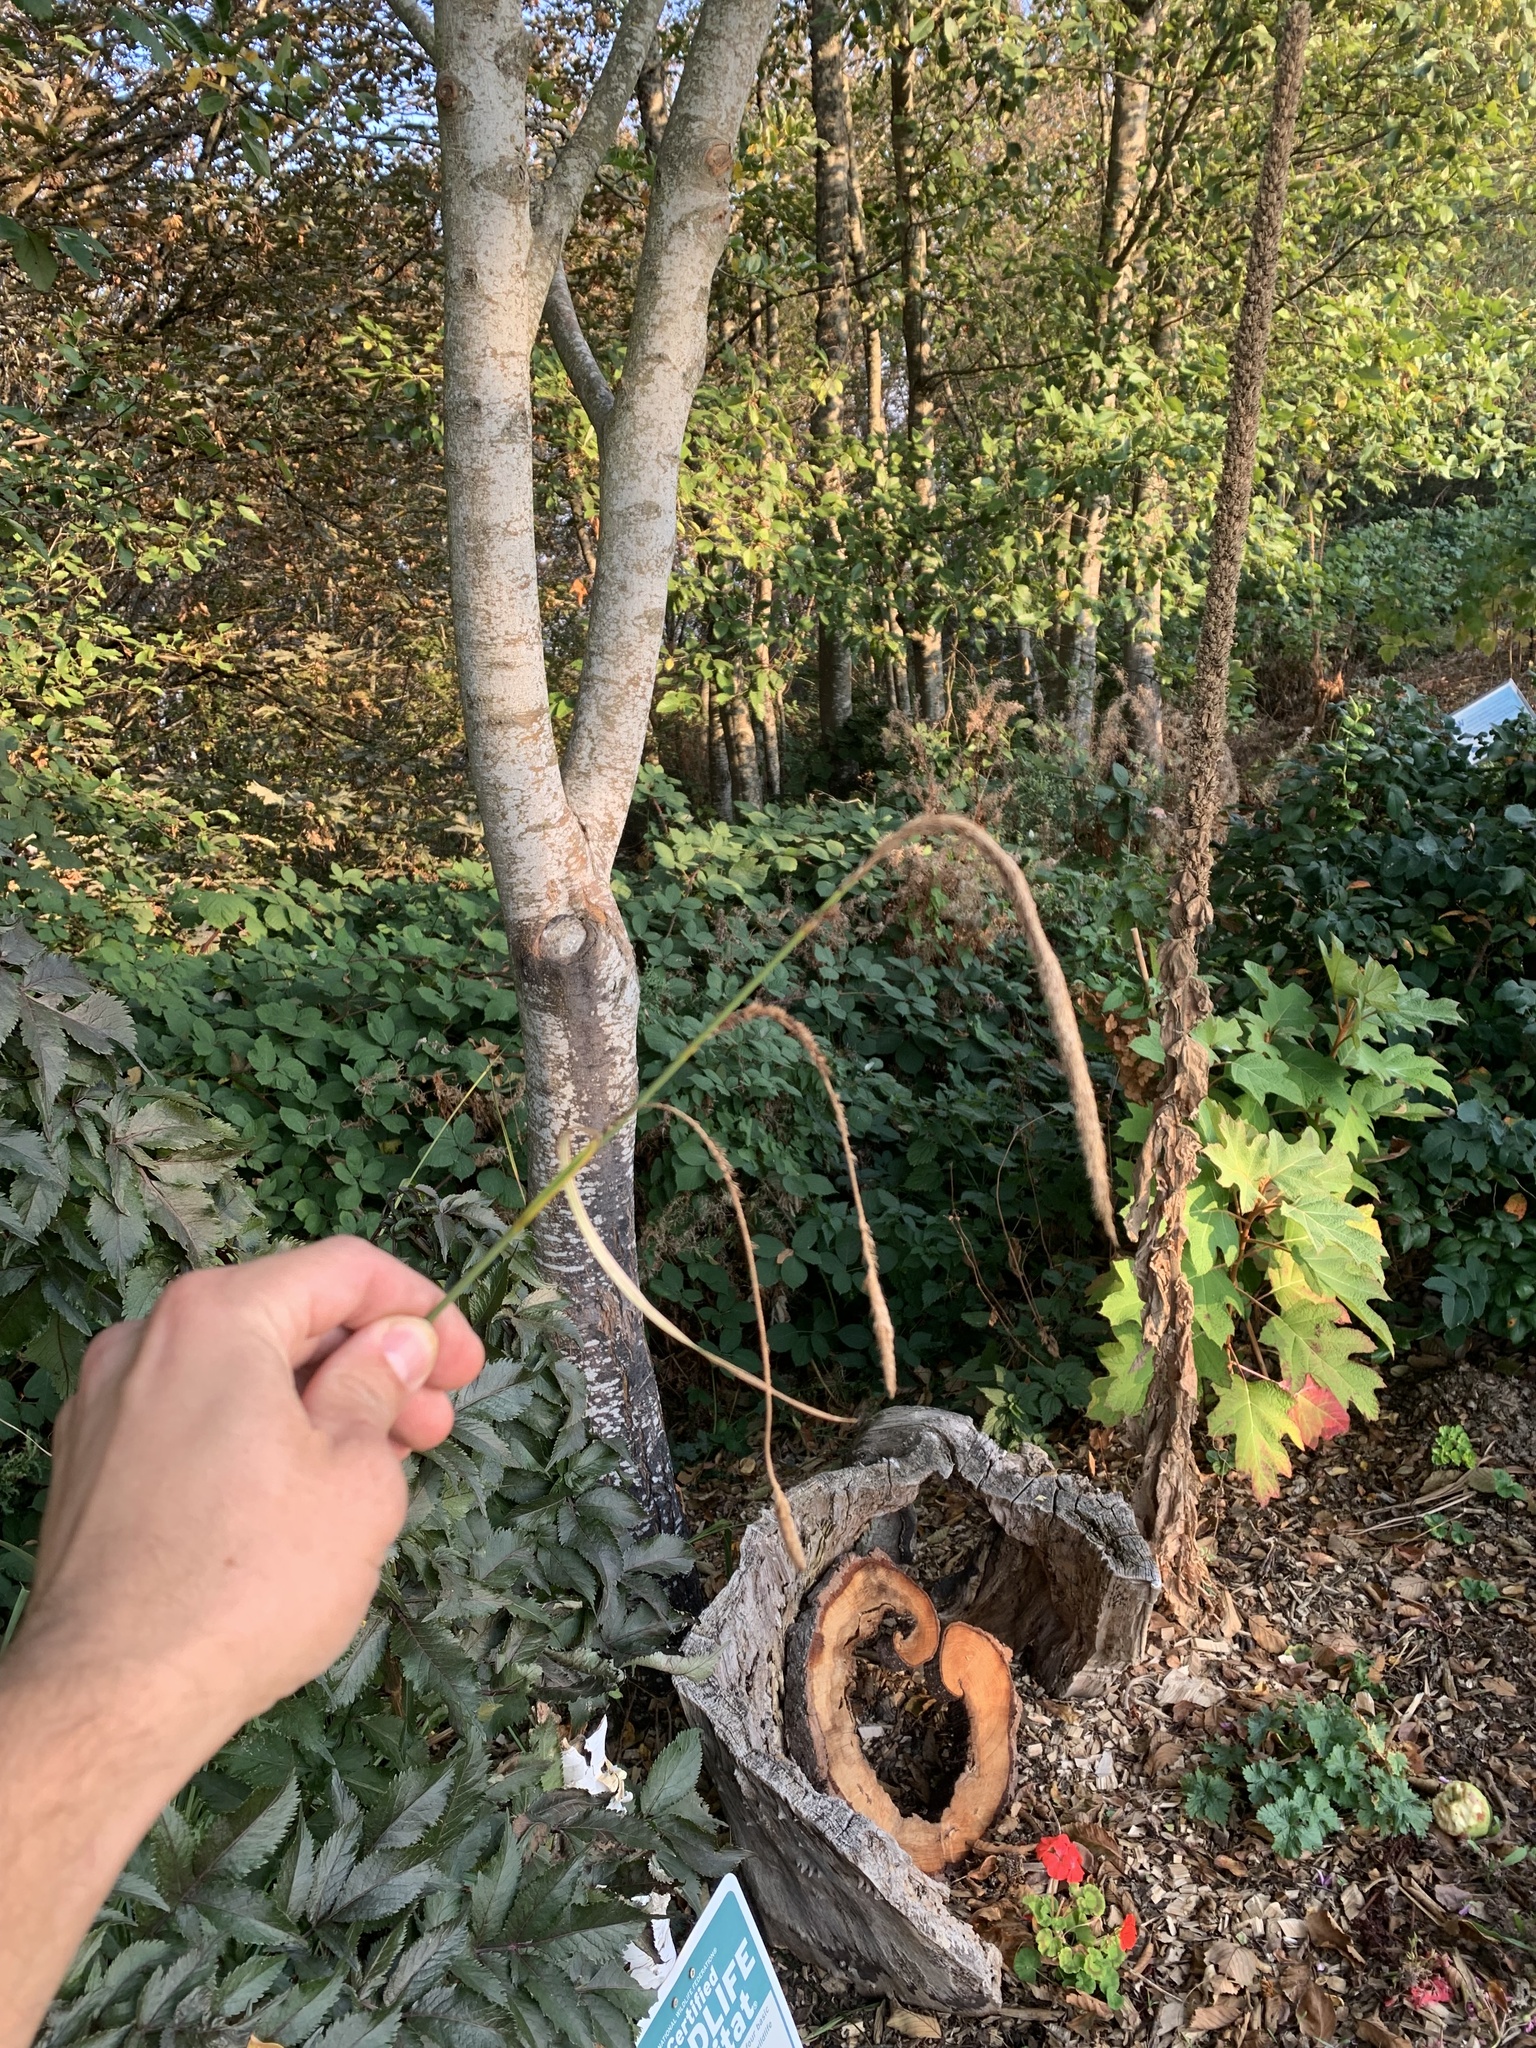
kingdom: Plantae
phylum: Tracheophyta
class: Liliopsida
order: Poales
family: Cyperaceae
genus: Carex
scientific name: Carex pendula
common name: Pendulous sedge
